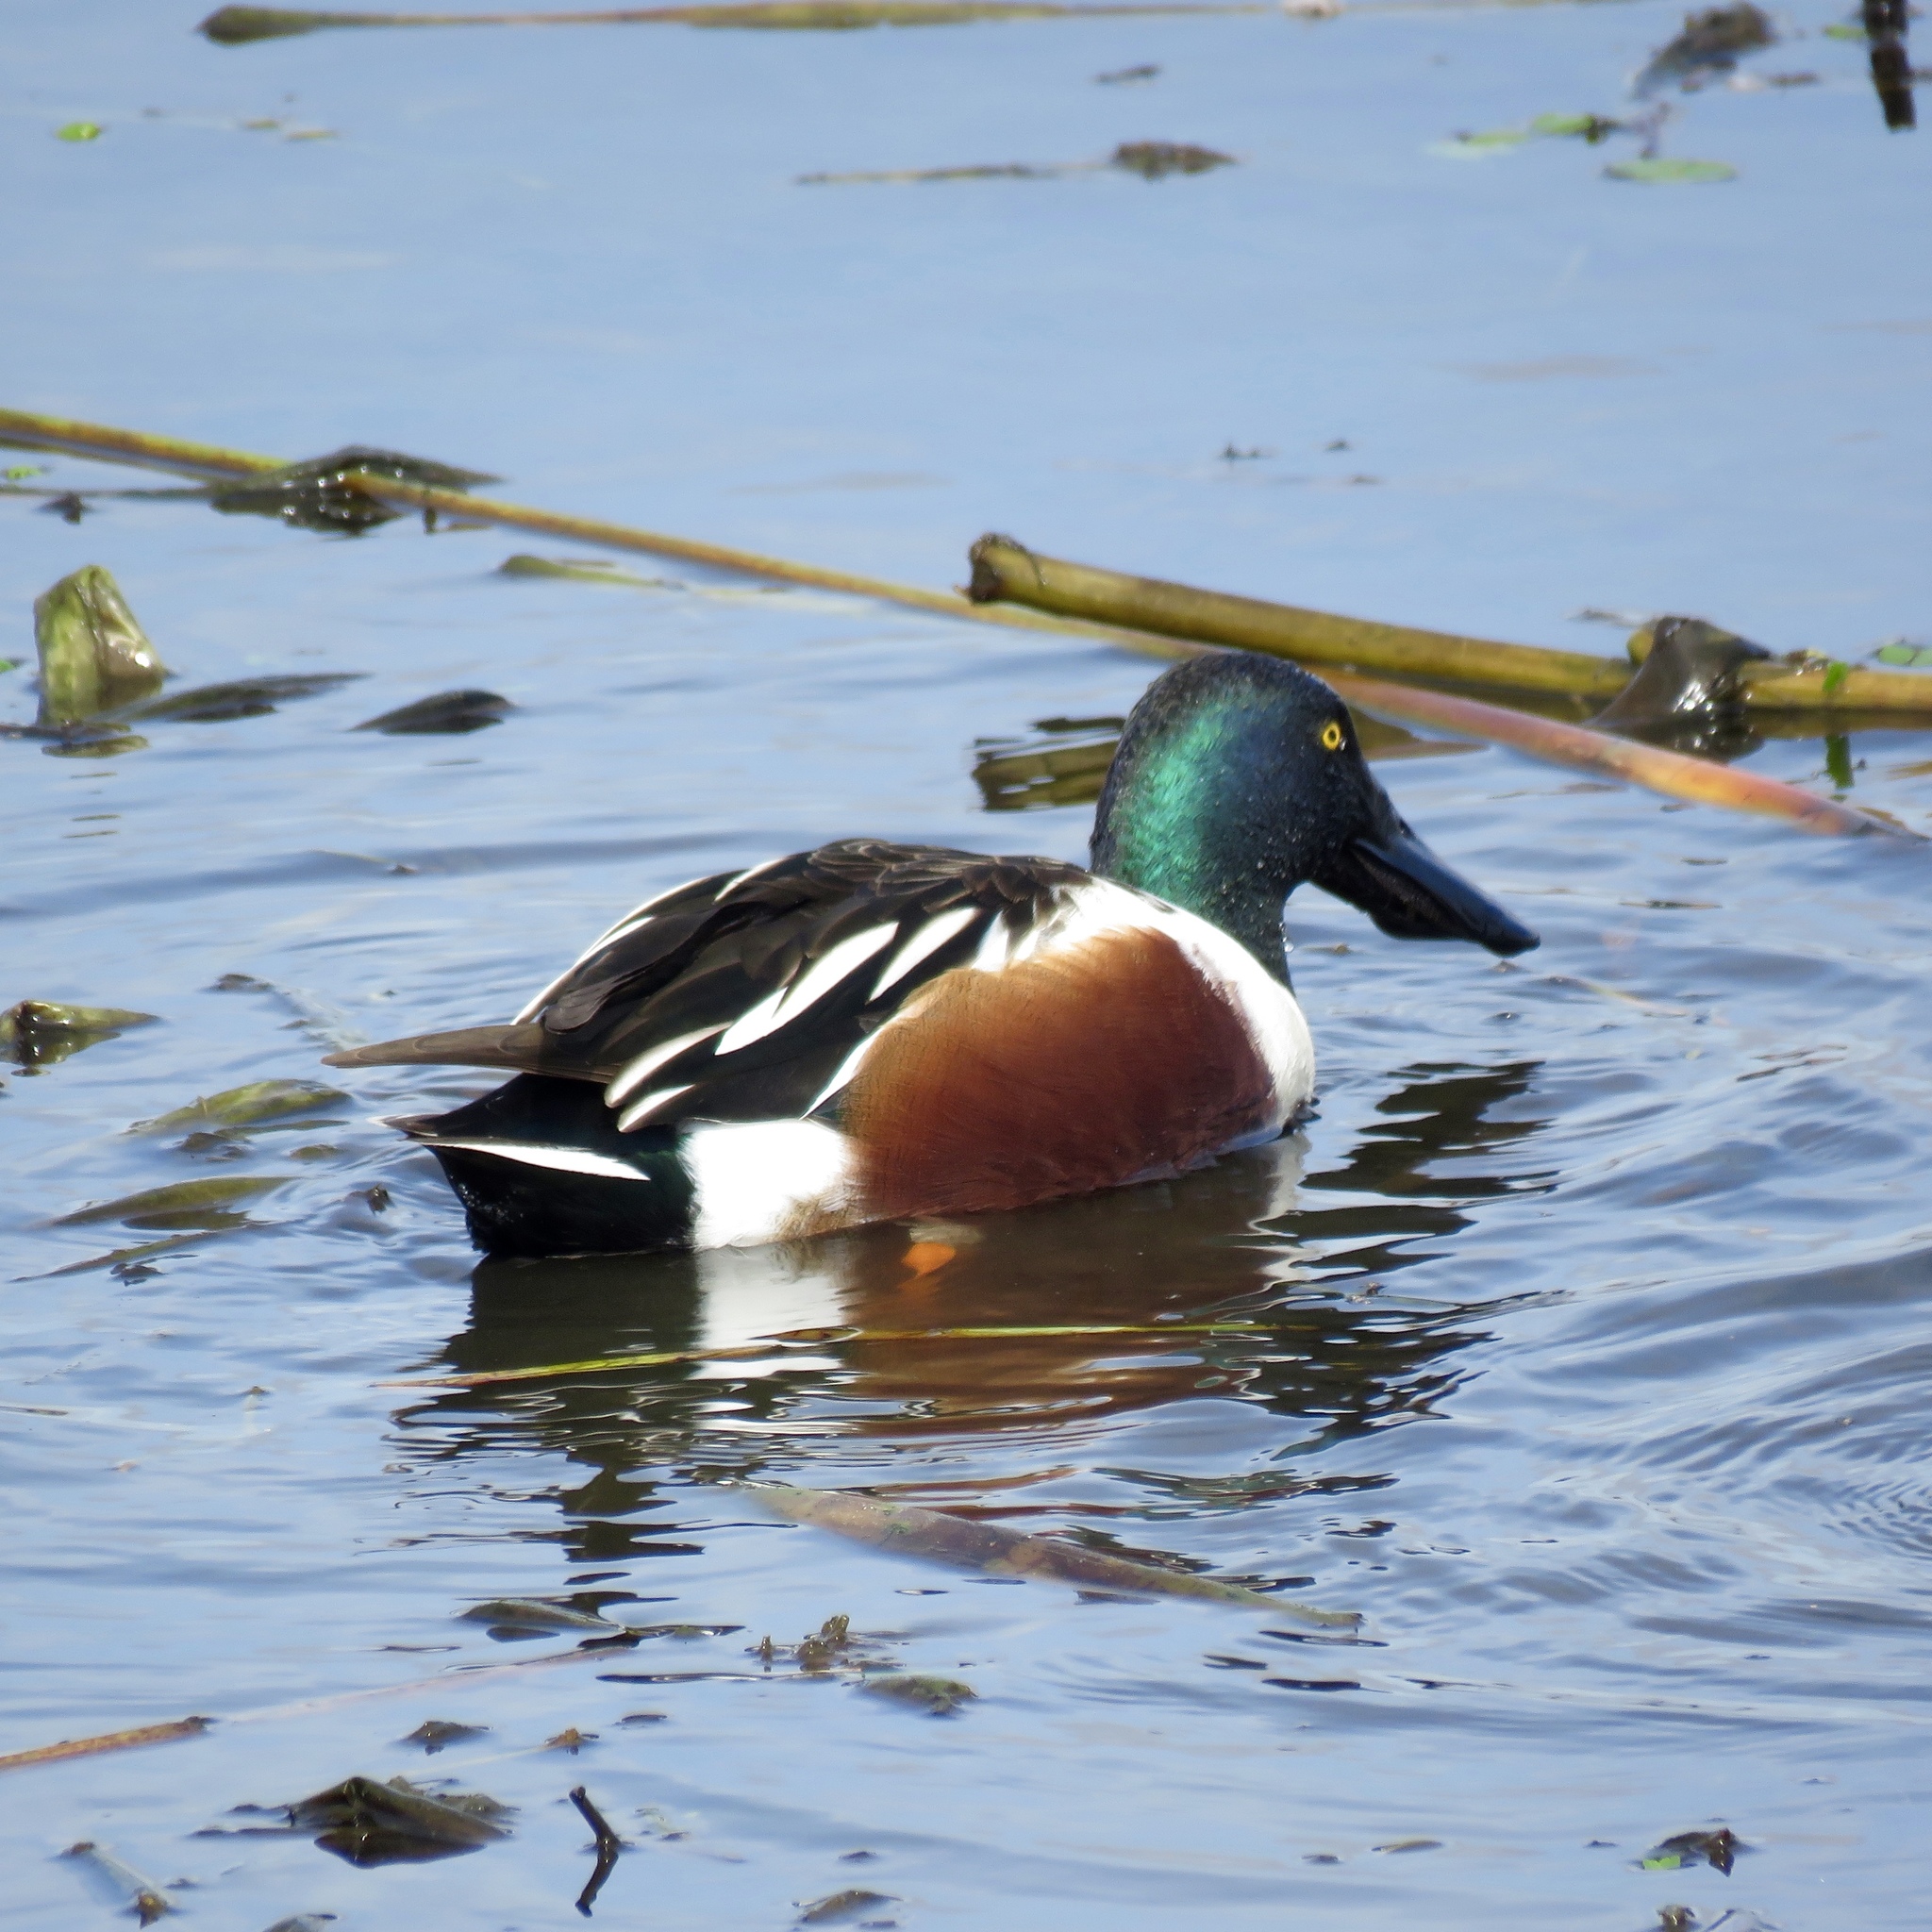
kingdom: Animalia
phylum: Chordata
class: Aves
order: Anseriformes
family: Anatidae
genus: Spatula
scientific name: Spatula clypeata
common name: Northern shoveler
